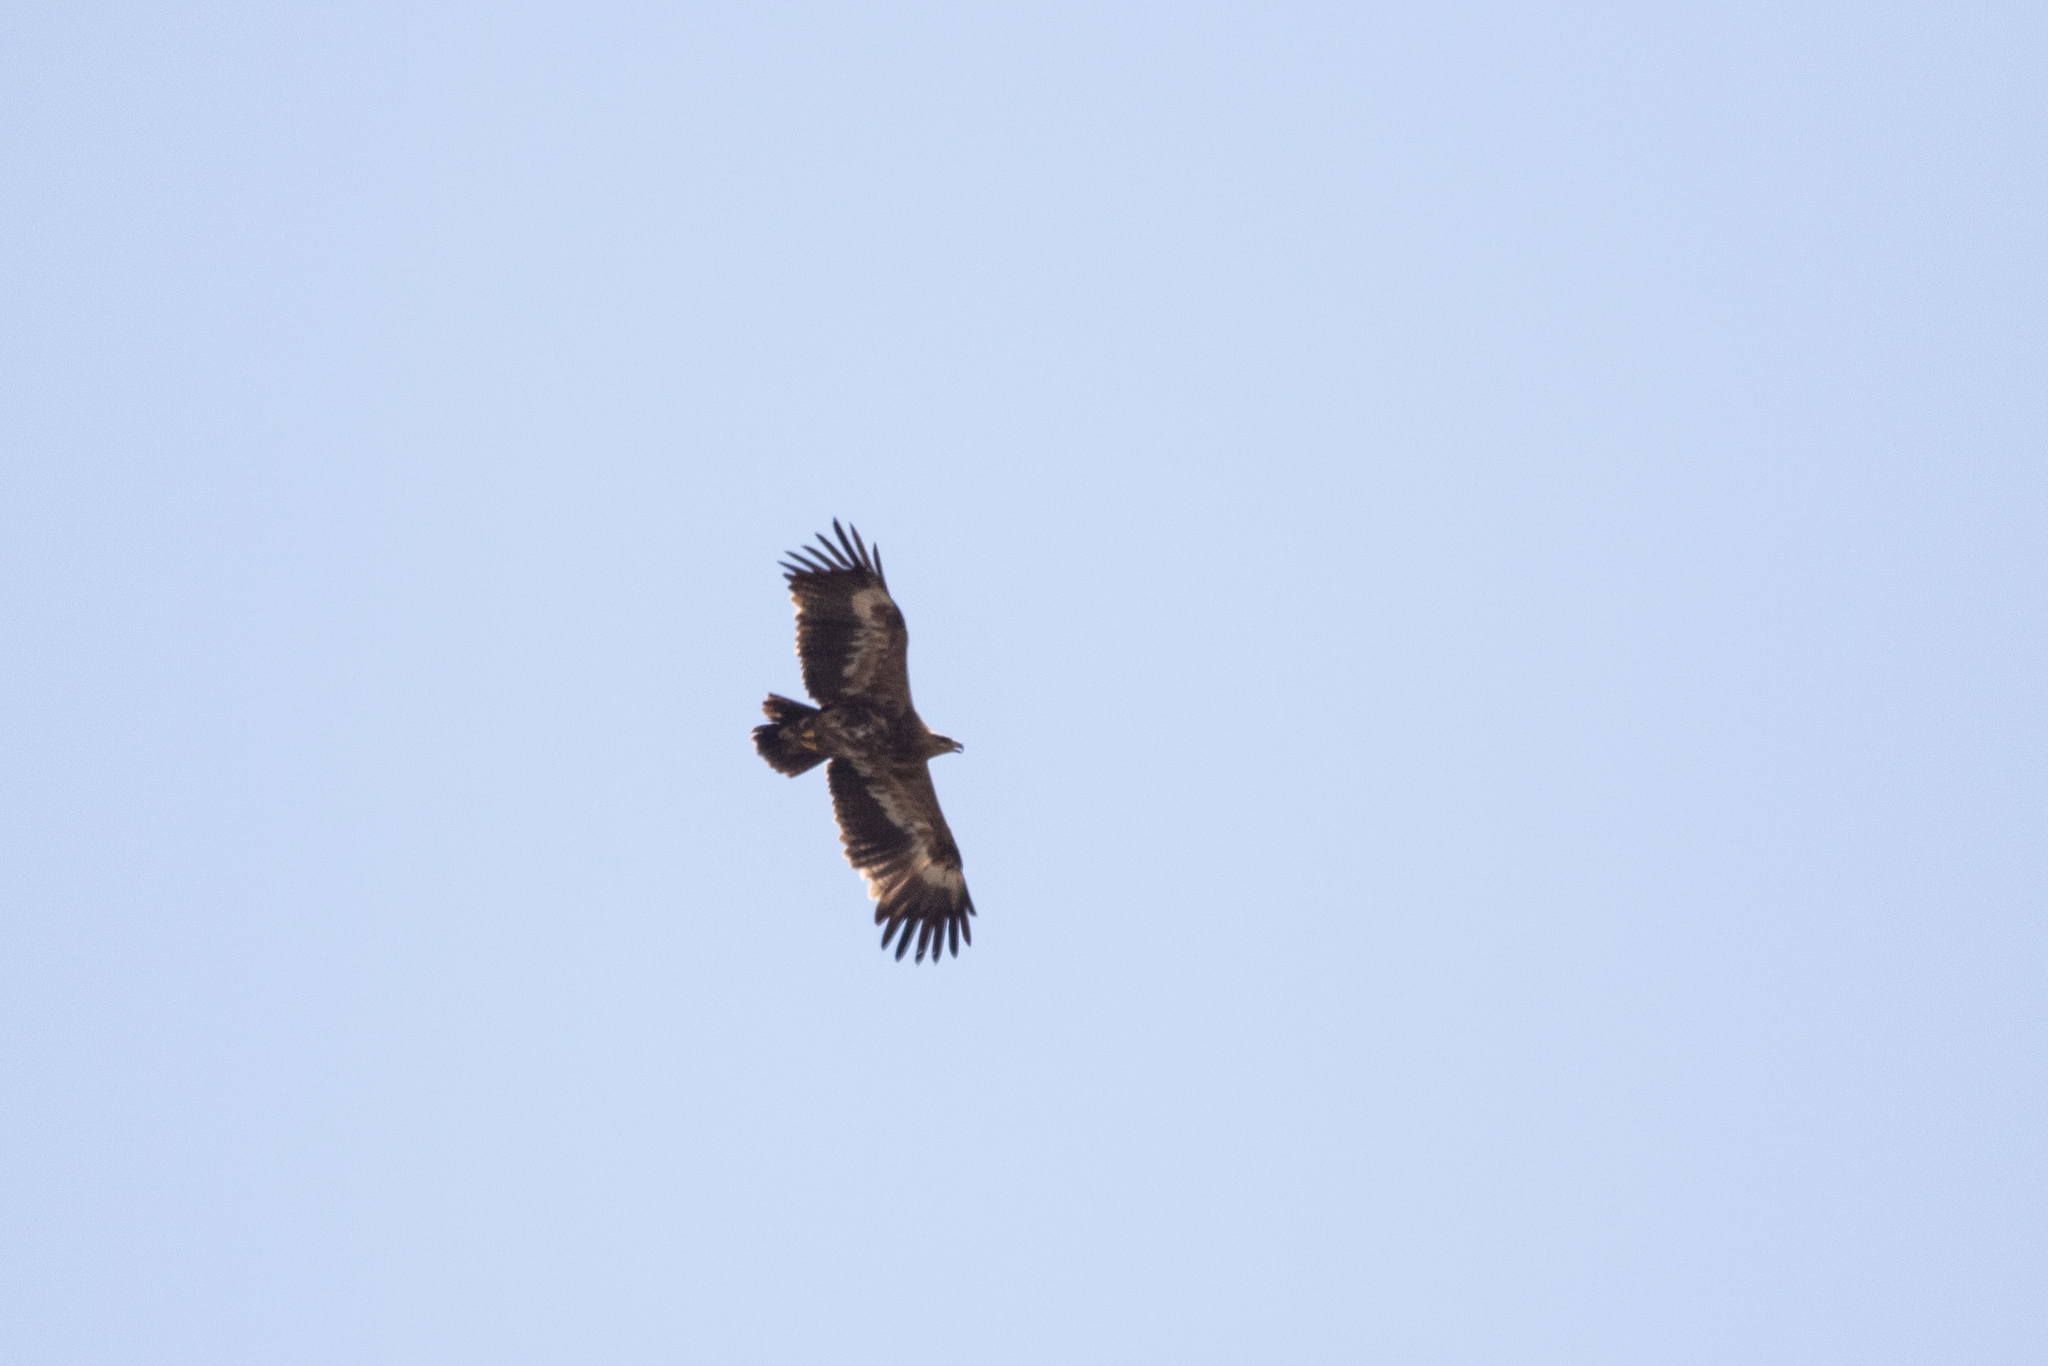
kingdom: Animalia
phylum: Chordata
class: Aves
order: Accipitriformes
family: Accipitridae
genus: Aquila
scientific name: Aquila nipalensis
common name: Steppe eagle
